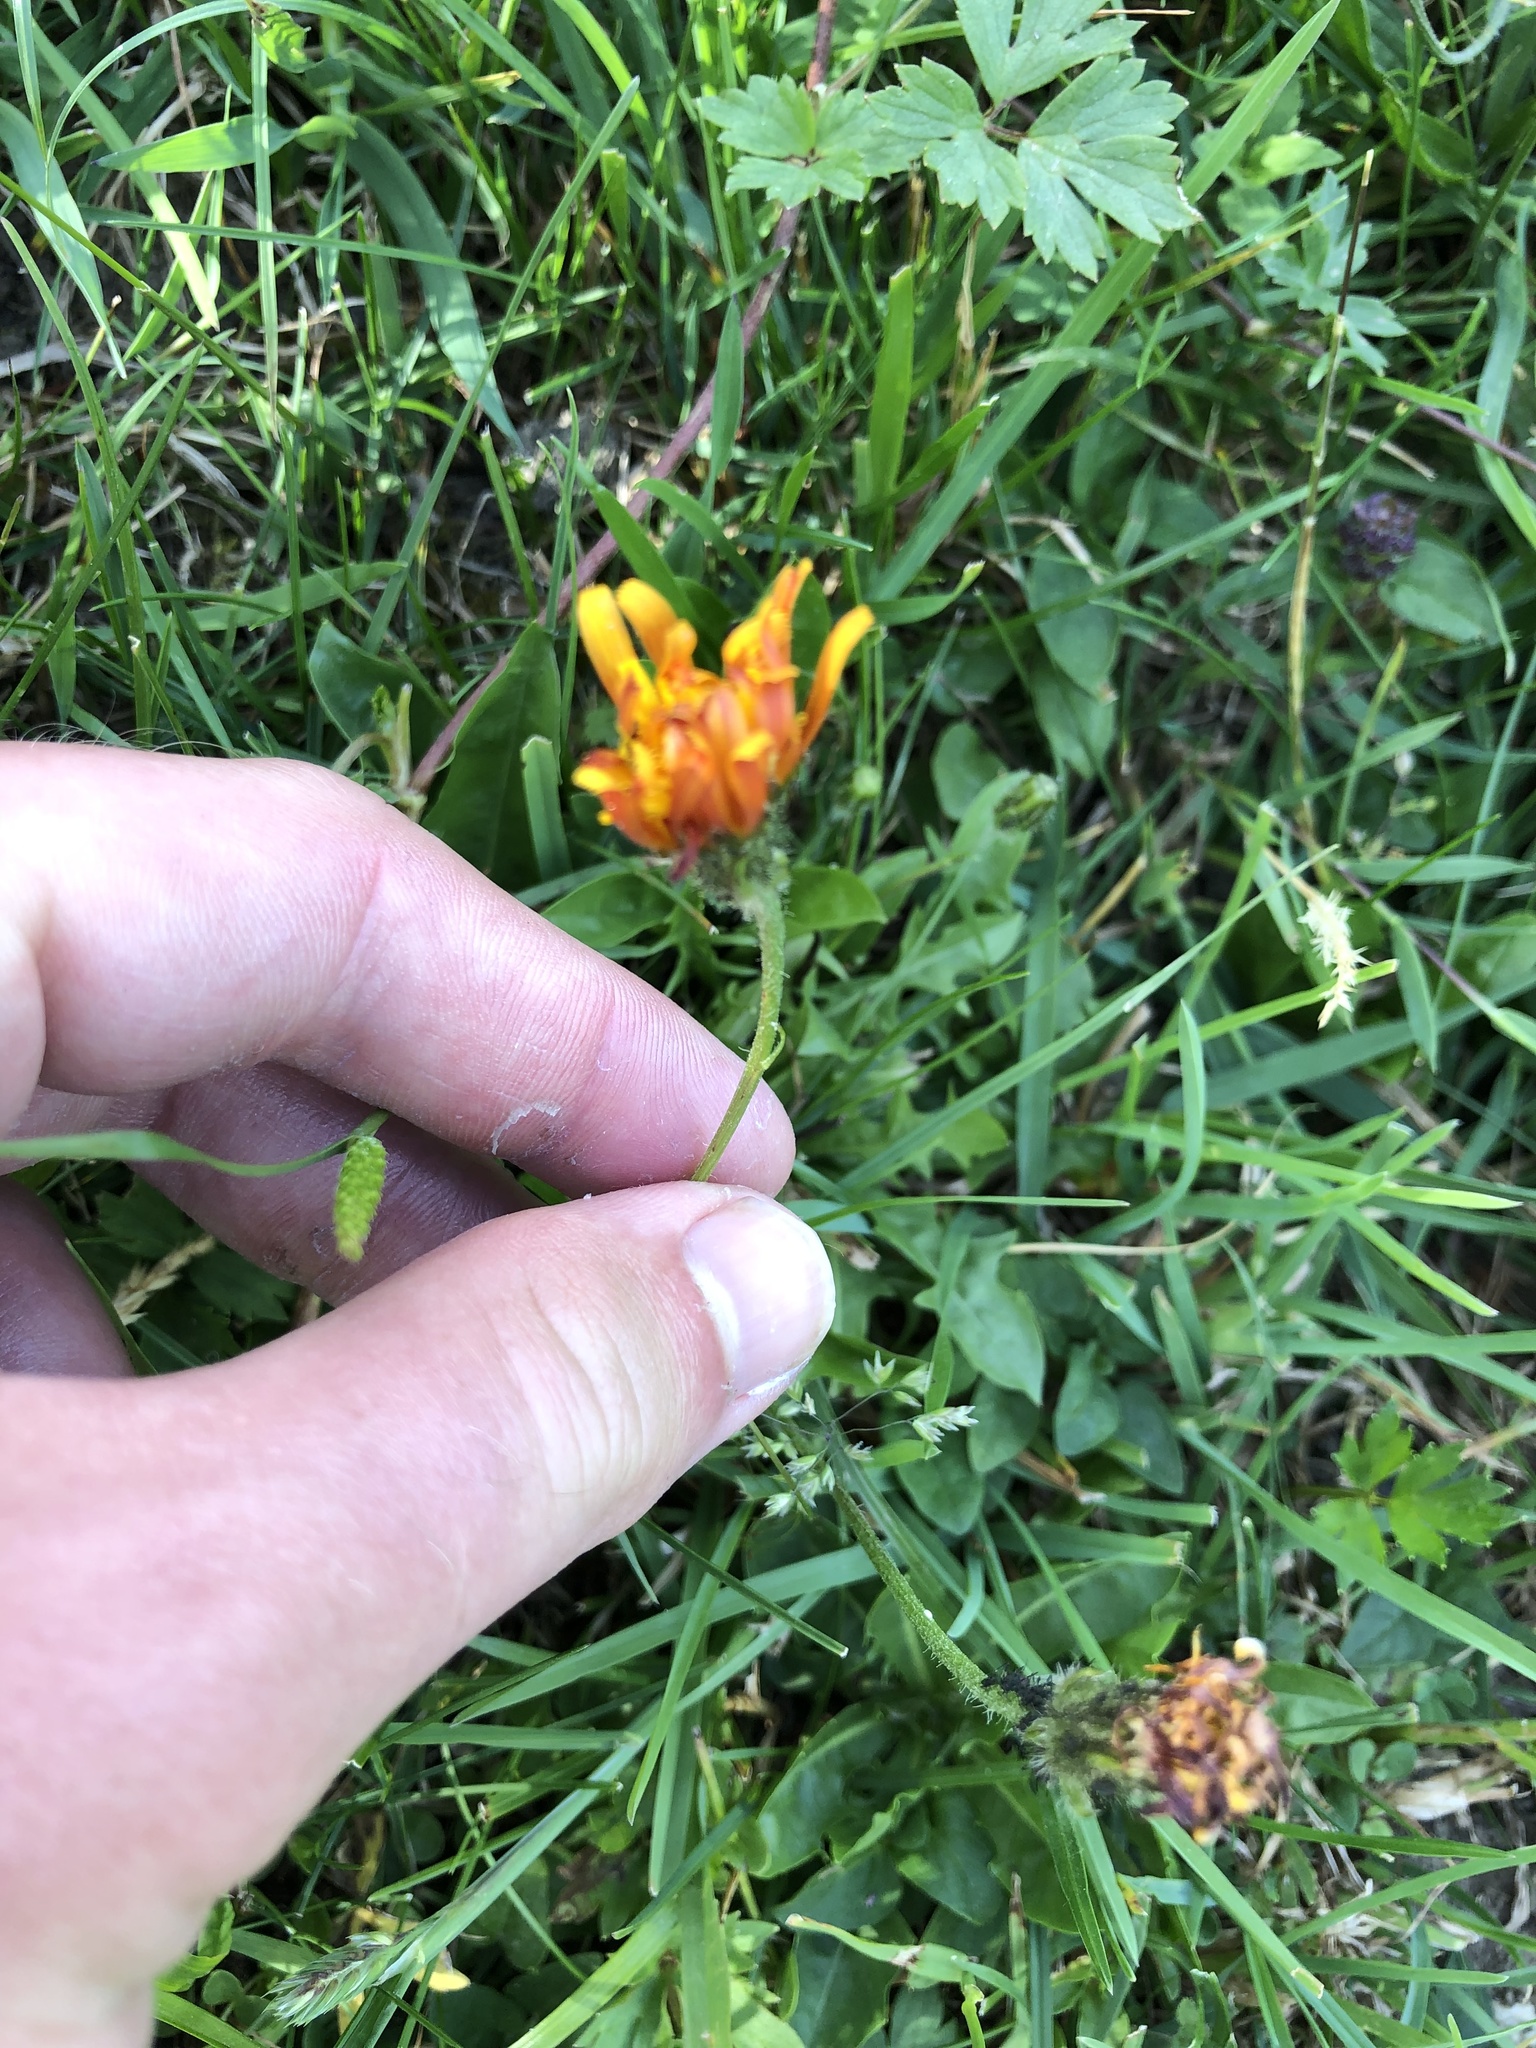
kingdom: Plantae
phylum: Tracheophyta
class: Magnoliopsida
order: Asterales
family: Asteraceae
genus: Crepis
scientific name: Crepis aurea
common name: Golden hawk's-beard
